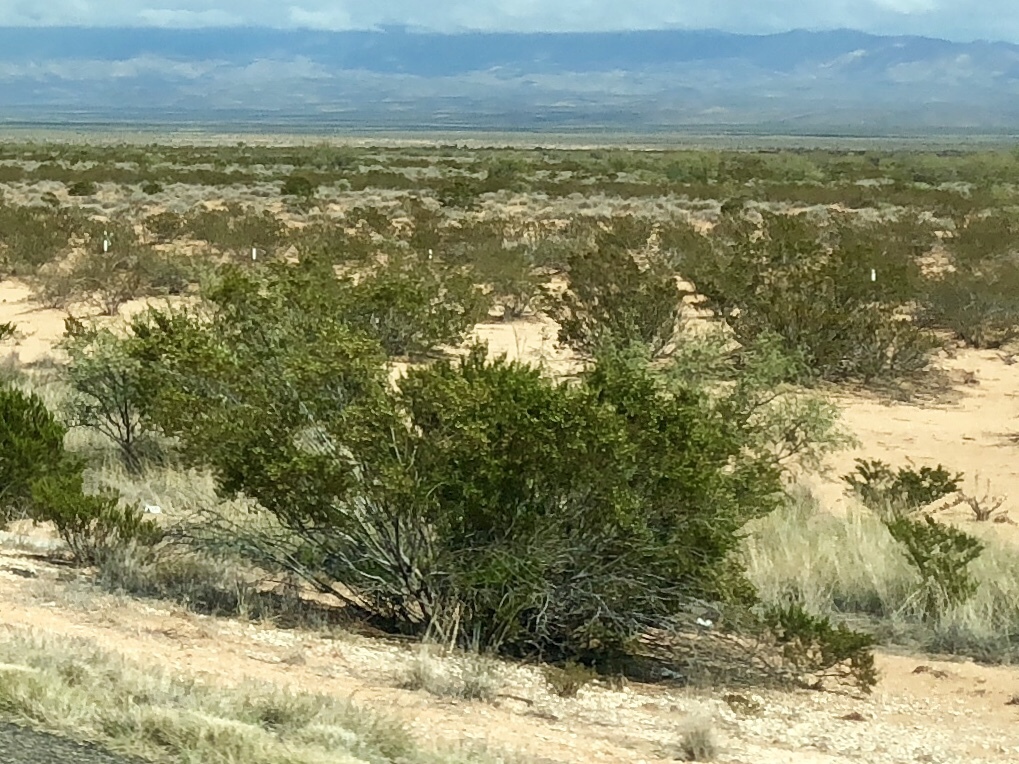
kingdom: Plantae
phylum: Tracheophyta
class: Magnoliopsida
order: Zygophyllales
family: Zygophyllaceae
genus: Larrea
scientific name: Larrea tridentata
